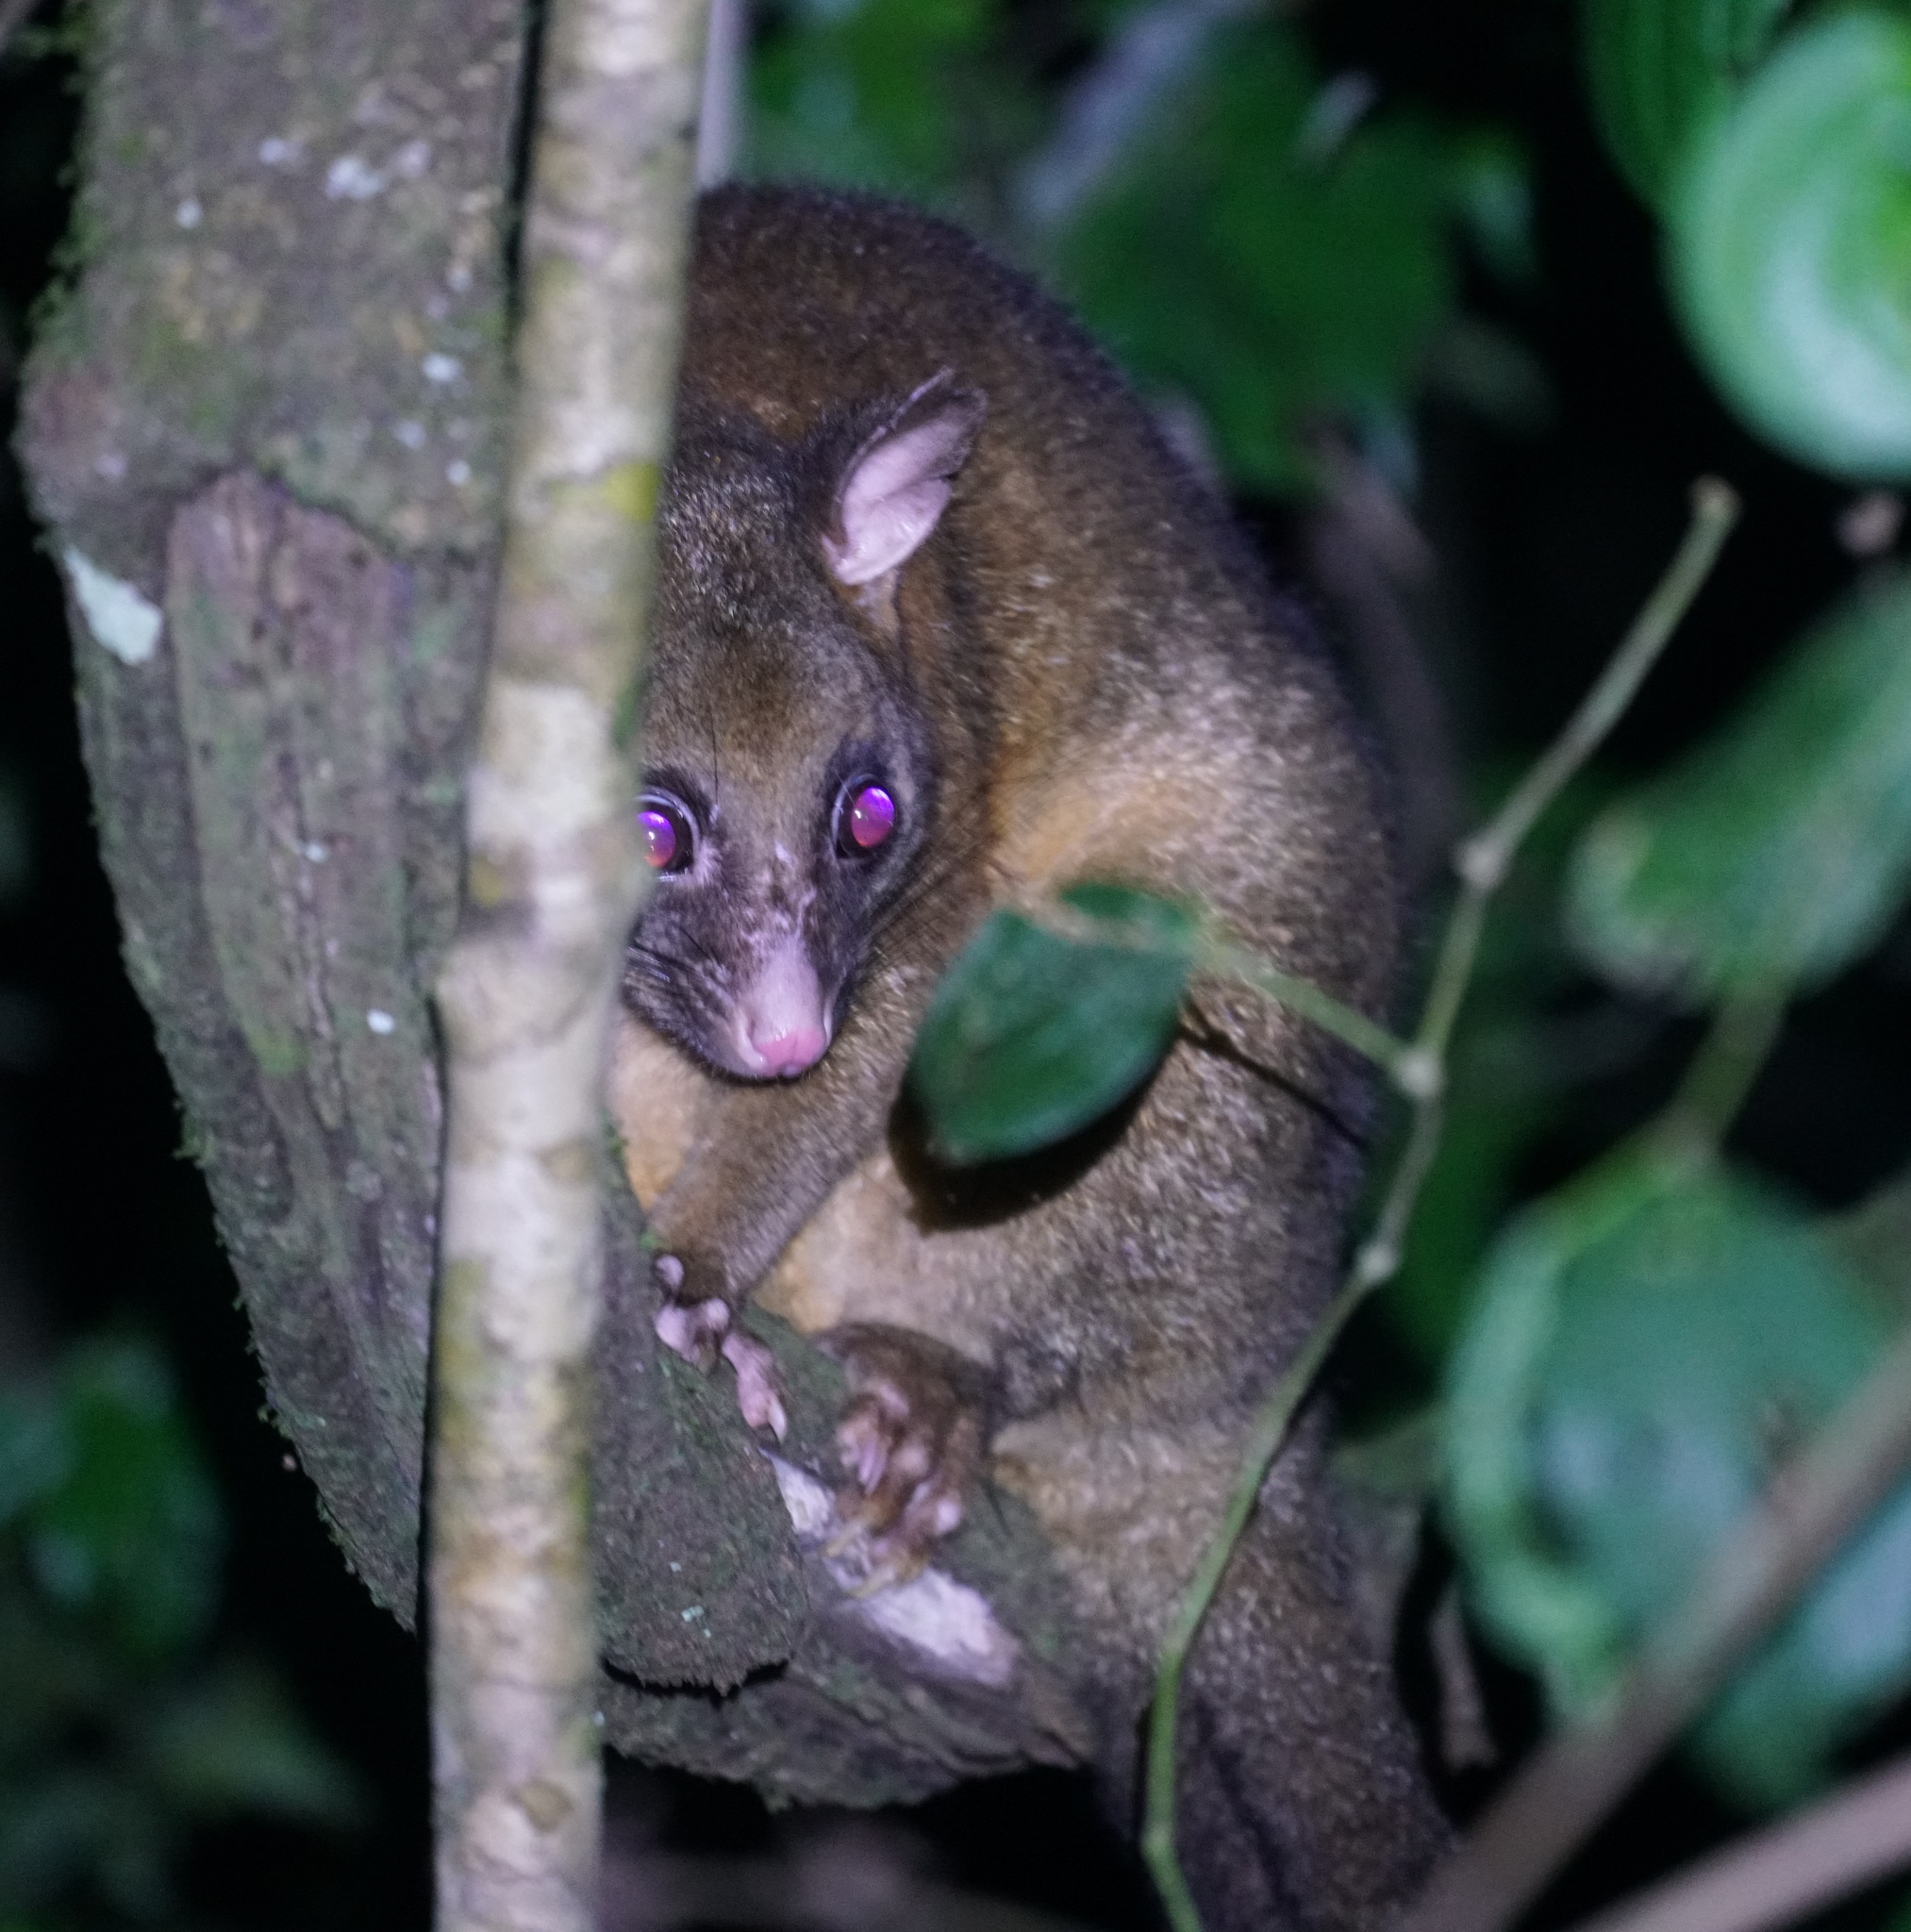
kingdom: Animalia
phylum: Chordata
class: Mammalia
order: Diprotodontia
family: Phalangeridae
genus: Trichosurus
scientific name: Trichosurus johnstonii
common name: Coppery brushtail
